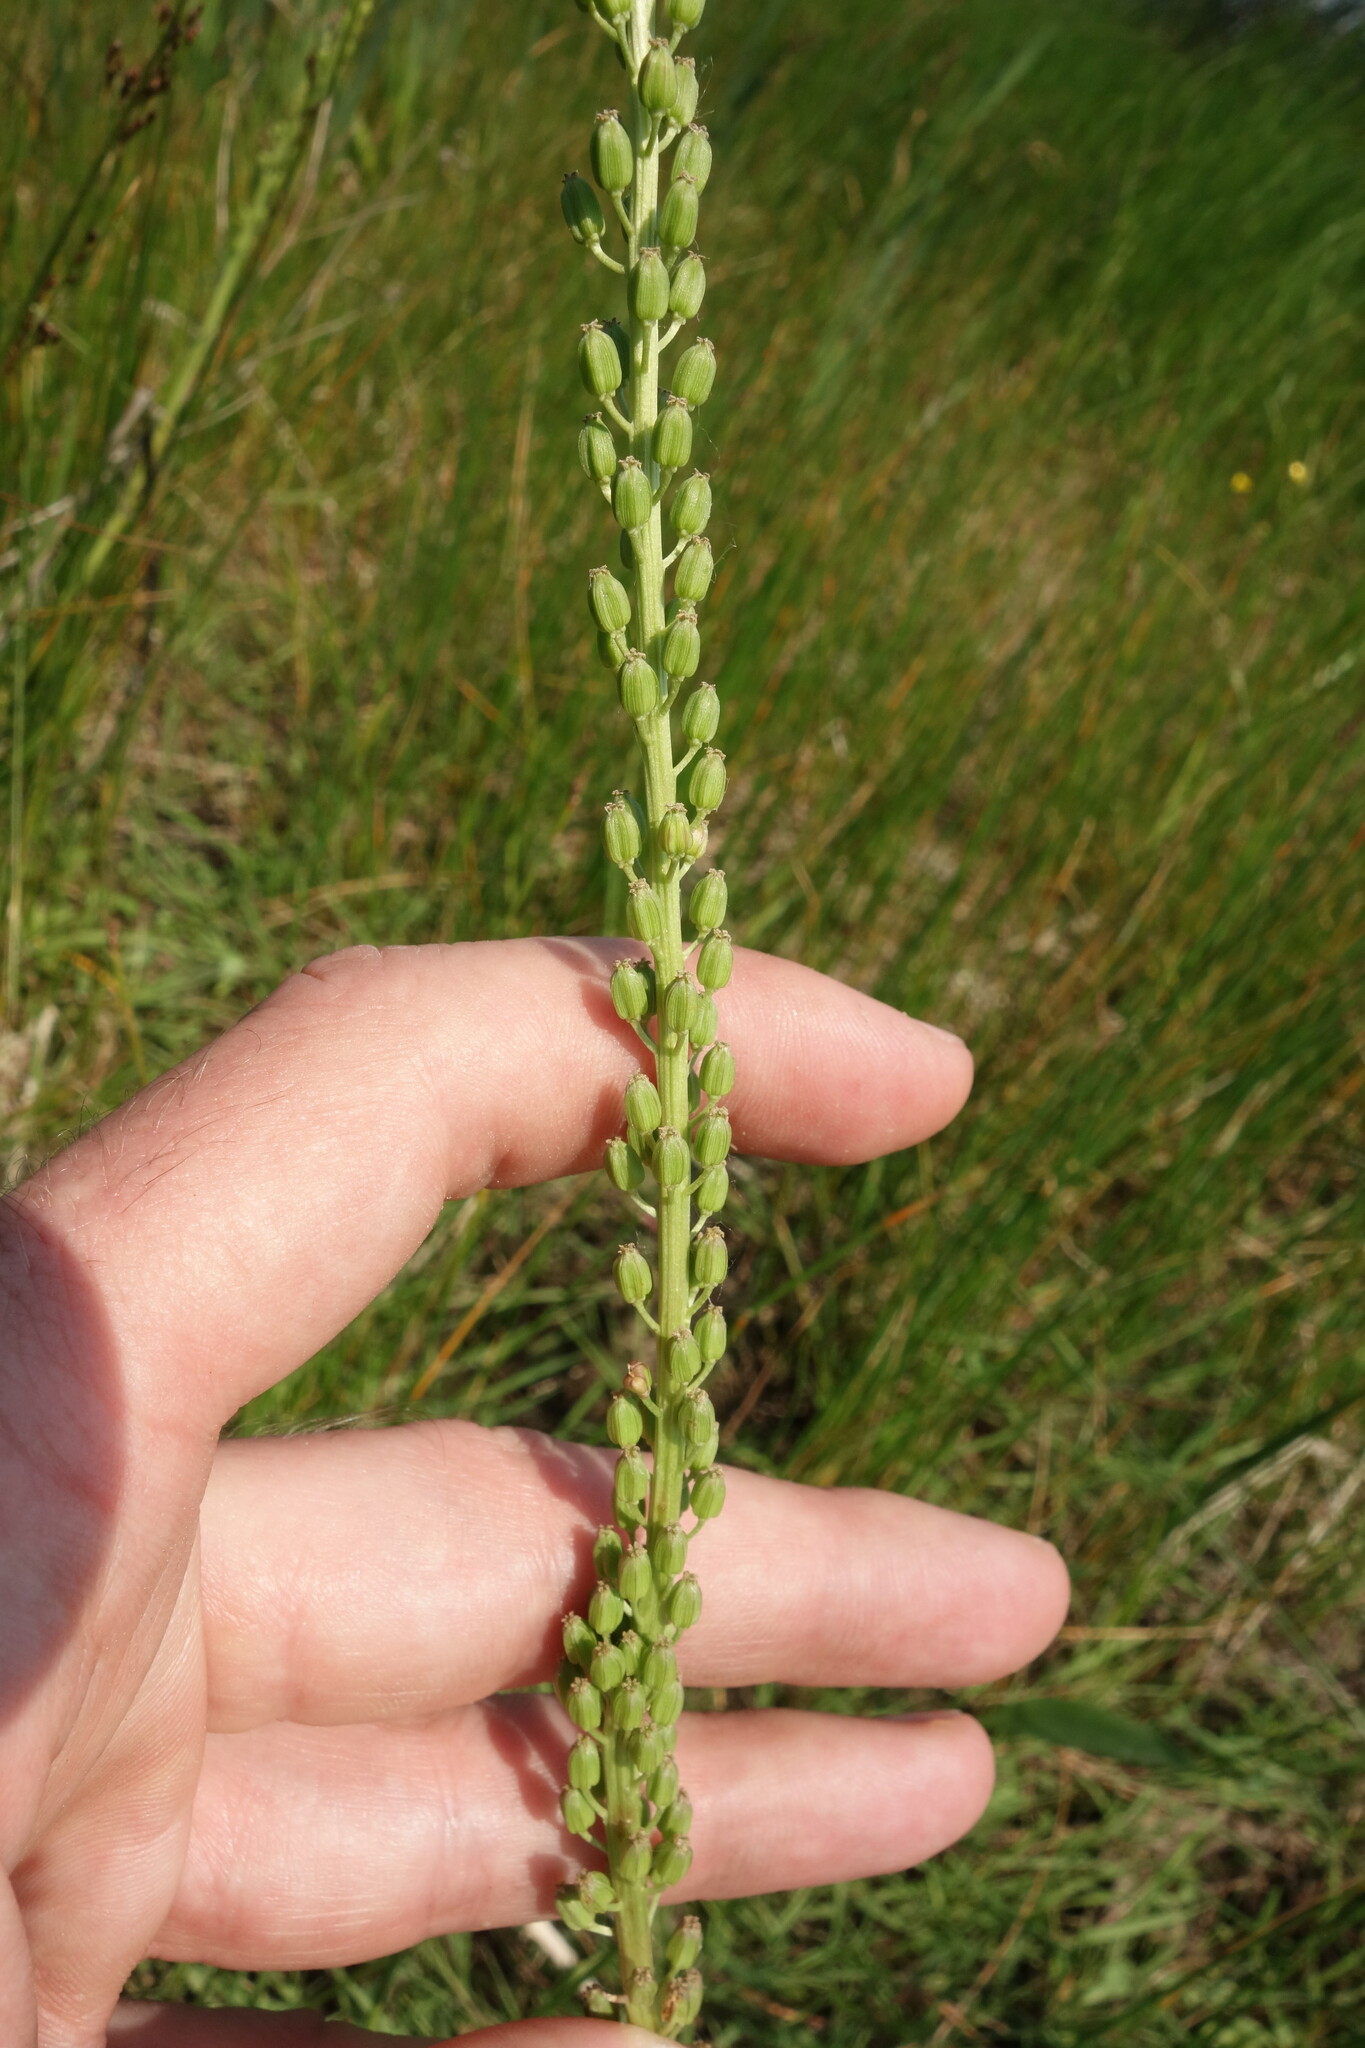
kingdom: Plantae
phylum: Tracheophyta
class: Liliopsida
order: Alismatales
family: Juncaginaceae
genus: Triglochin
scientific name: Triglochin maritima
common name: Sea arrowgrass
